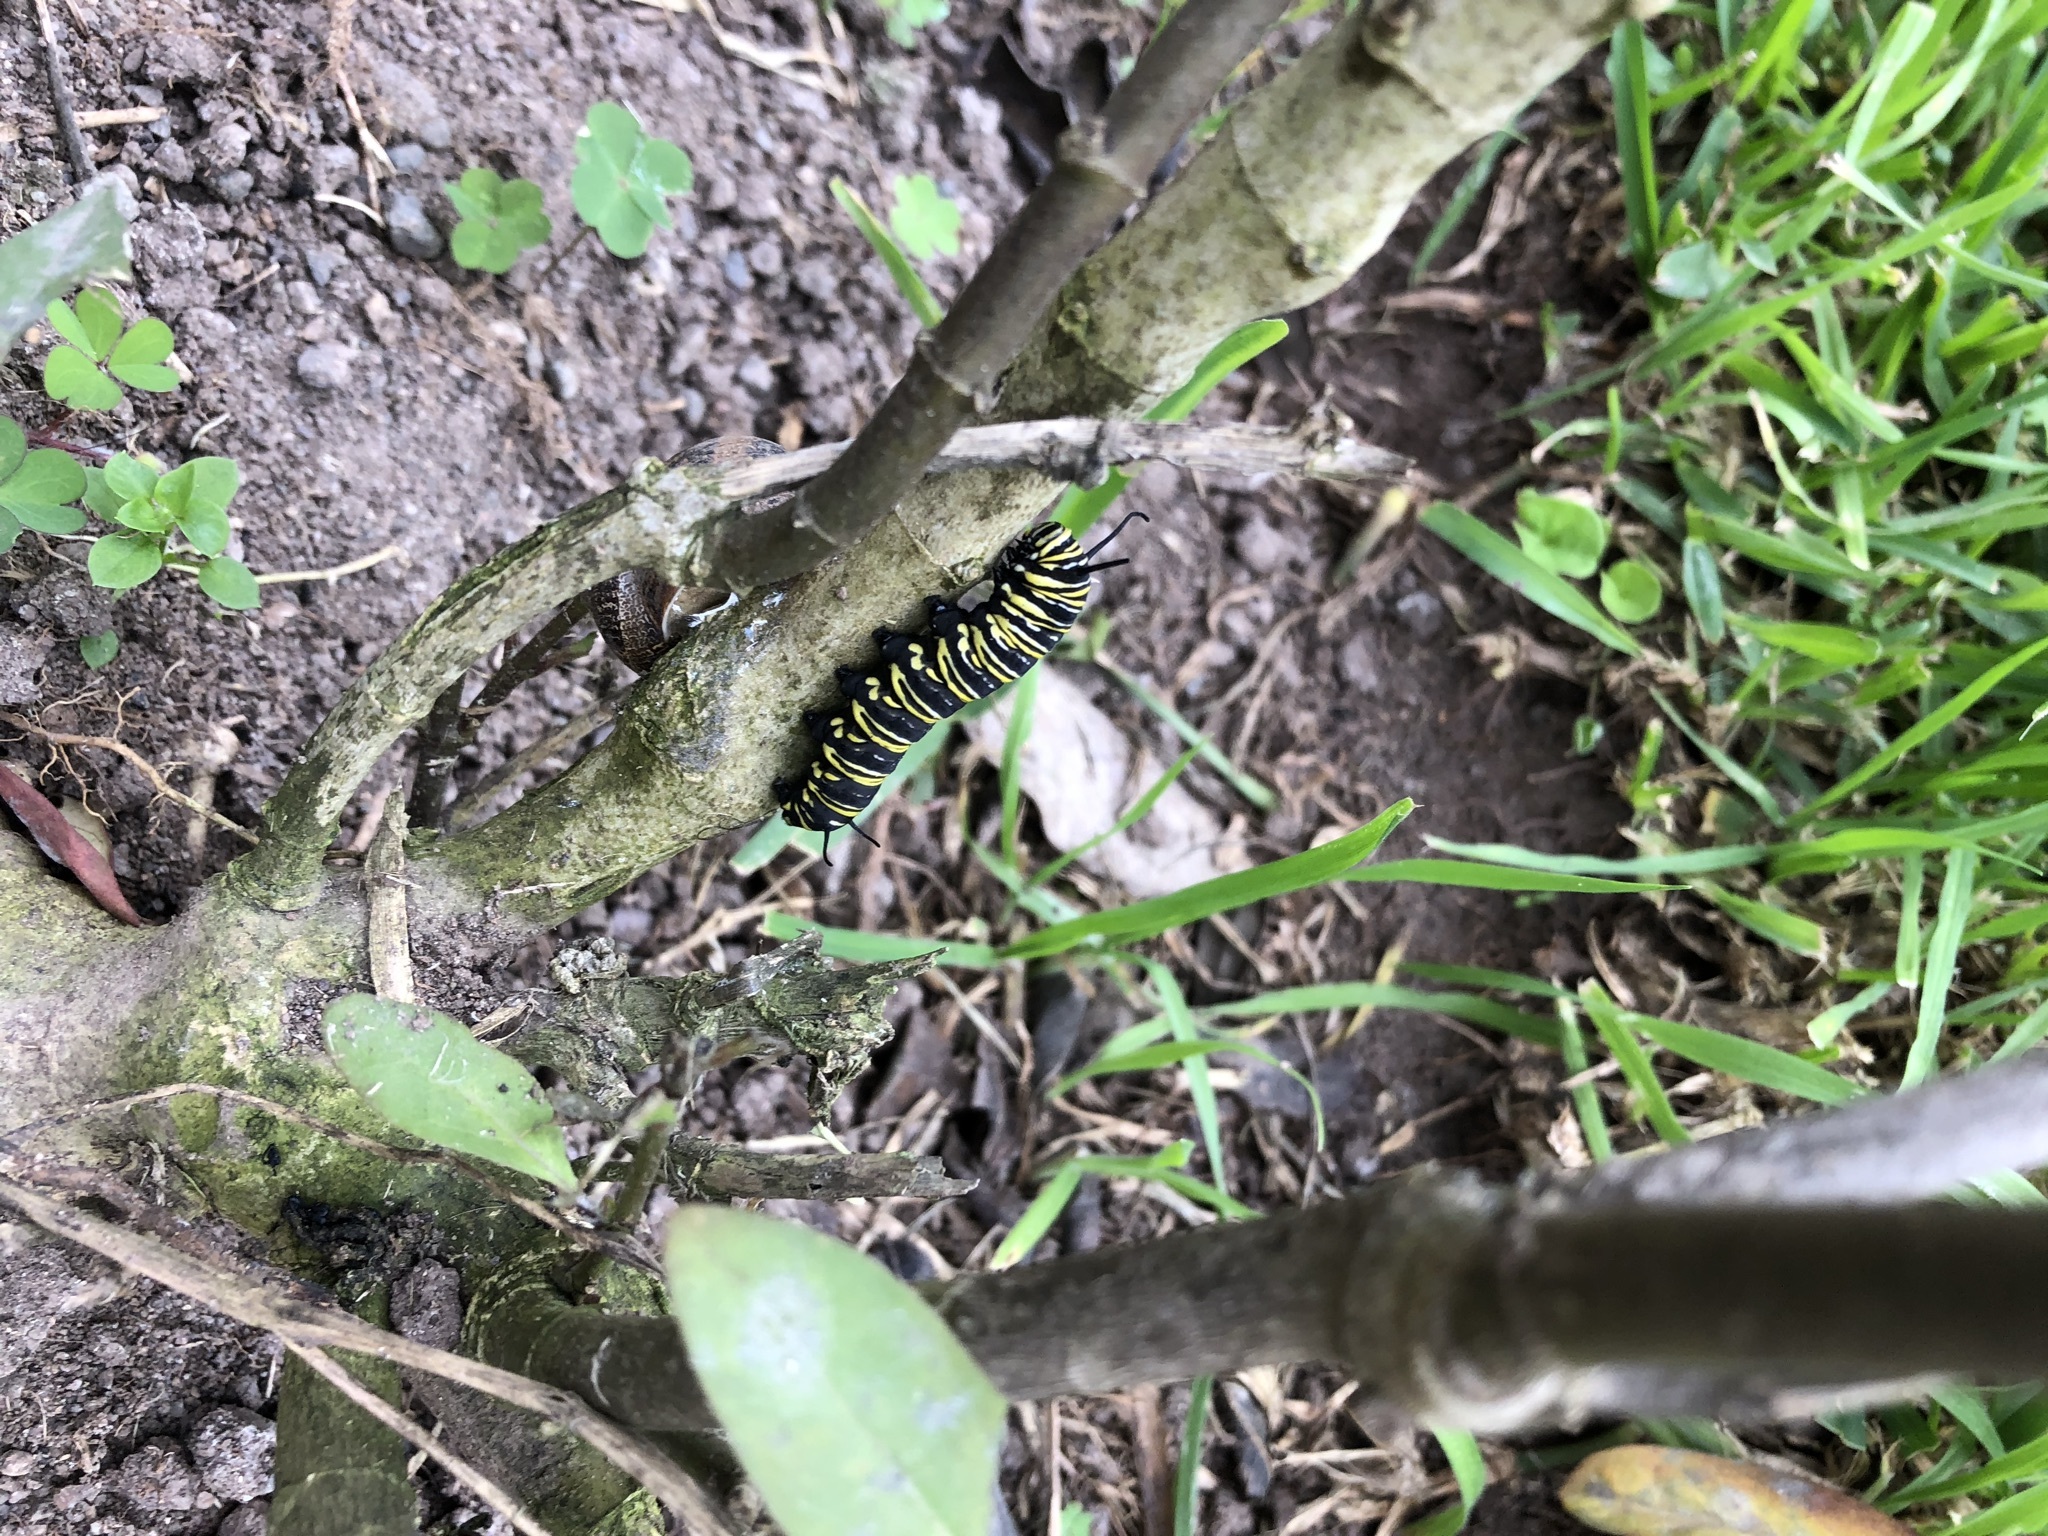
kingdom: Animalia
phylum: Arthropoda
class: Insecta
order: Lepidoptera
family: Nymphalidae
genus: Danaus
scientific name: Danaus plexippus
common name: Monarch
